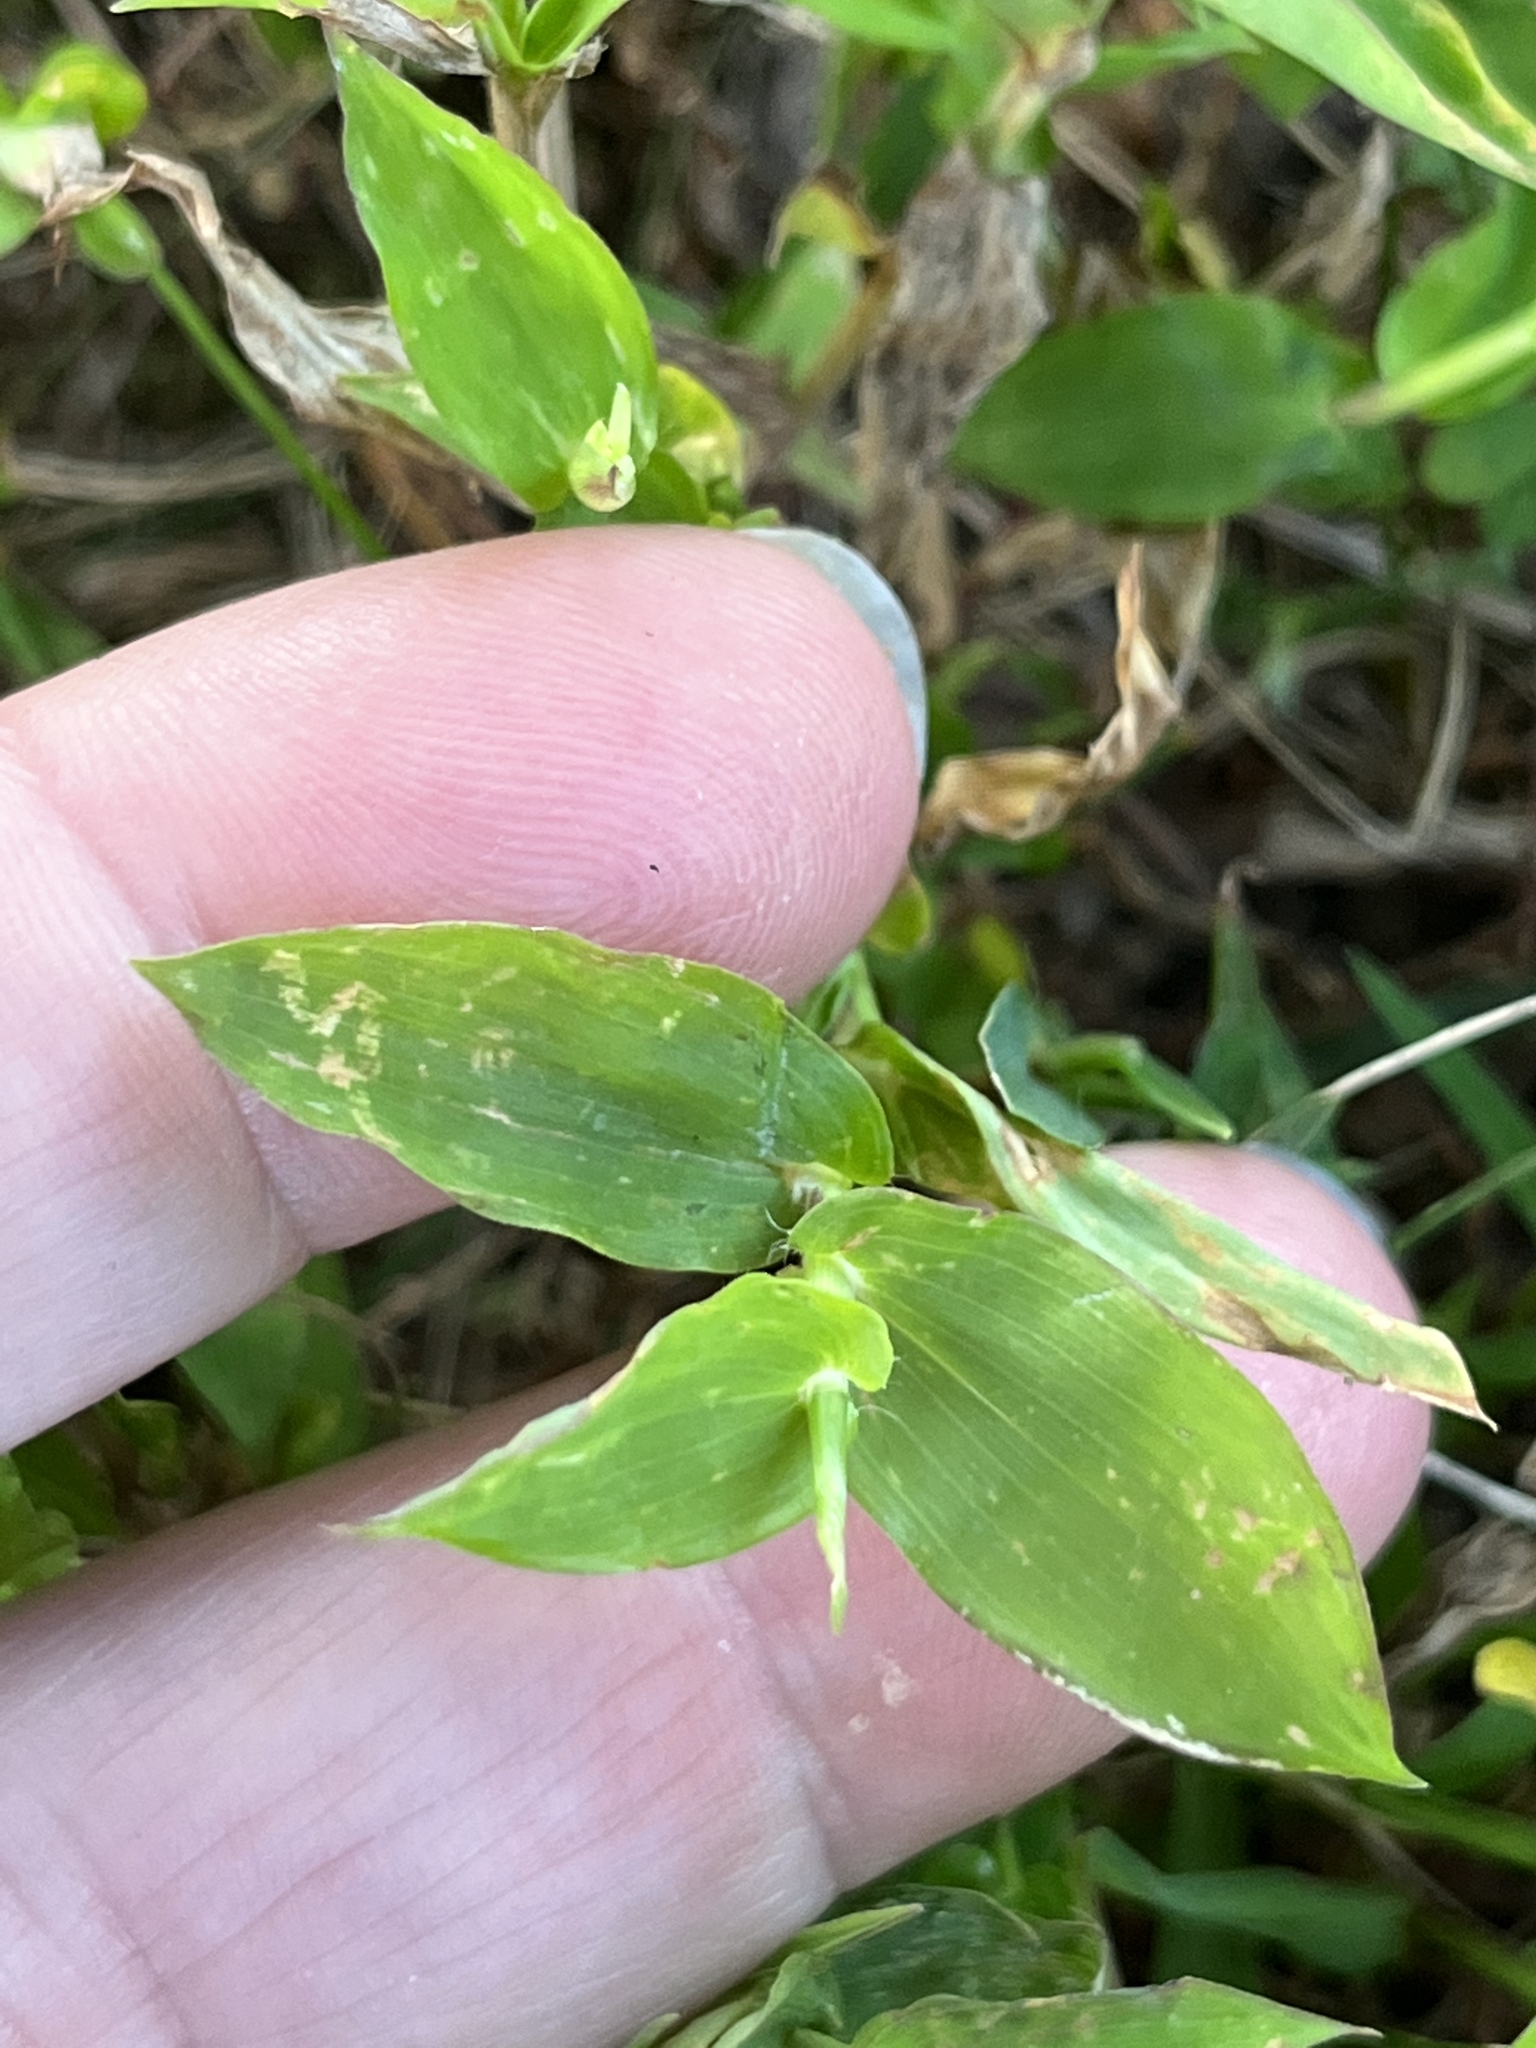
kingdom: Plantae
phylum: Tracheophyta
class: Liliopsida
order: Poales
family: Poaceae
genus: Arthraxon
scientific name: Arthraxon hispidus
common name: Small carpgrass
